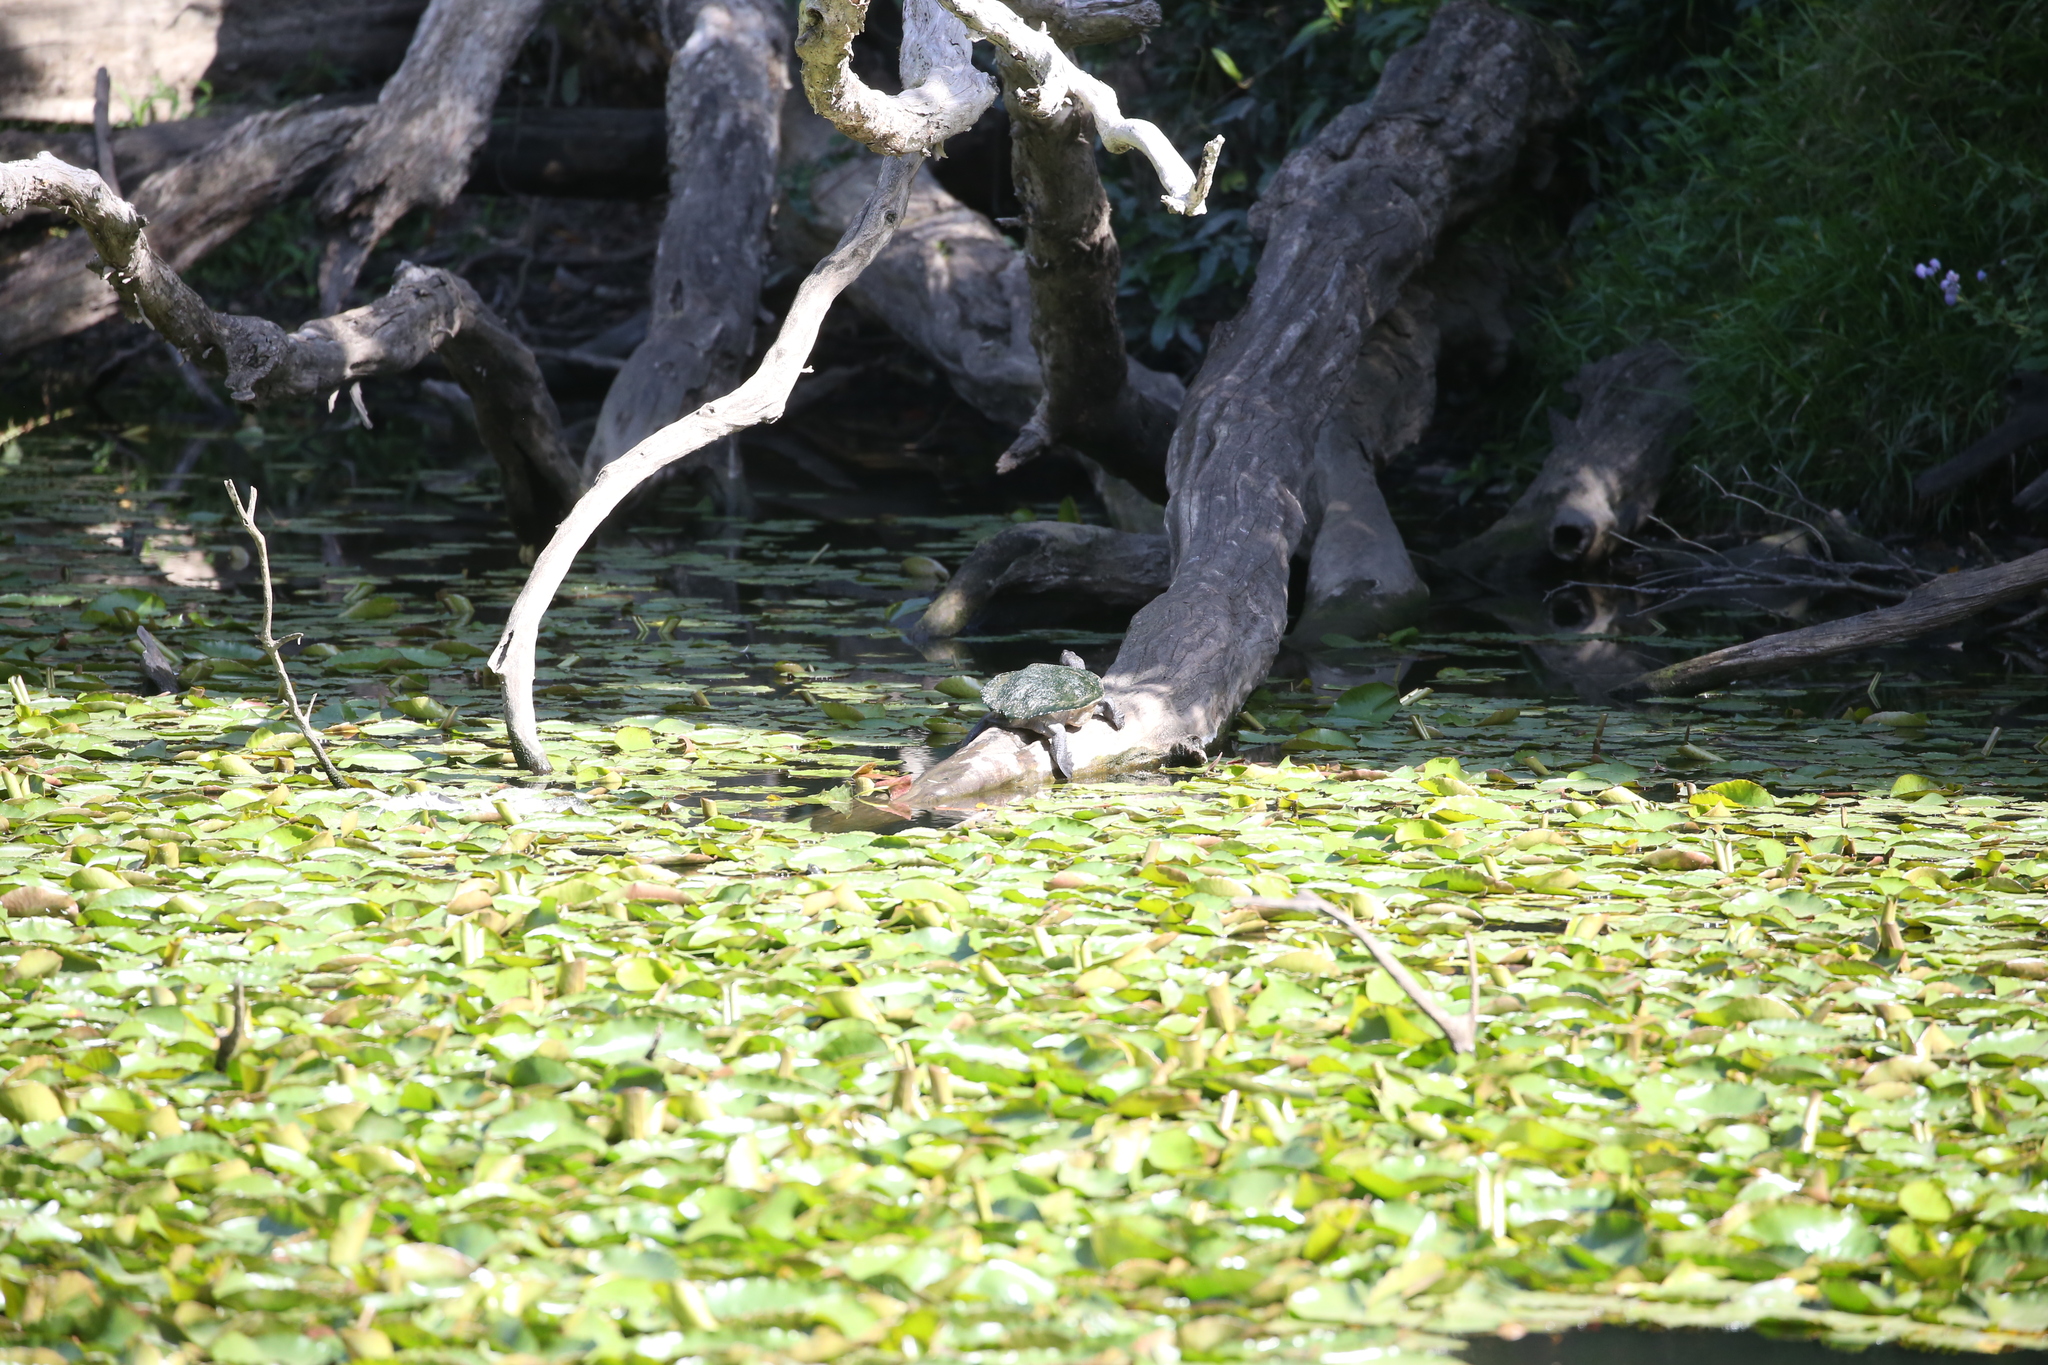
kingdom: Animalia
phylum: Chordata
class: Testudines
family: Chelidae
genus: Emydura
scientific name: Emydura macquarii
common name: Murray river turtle
